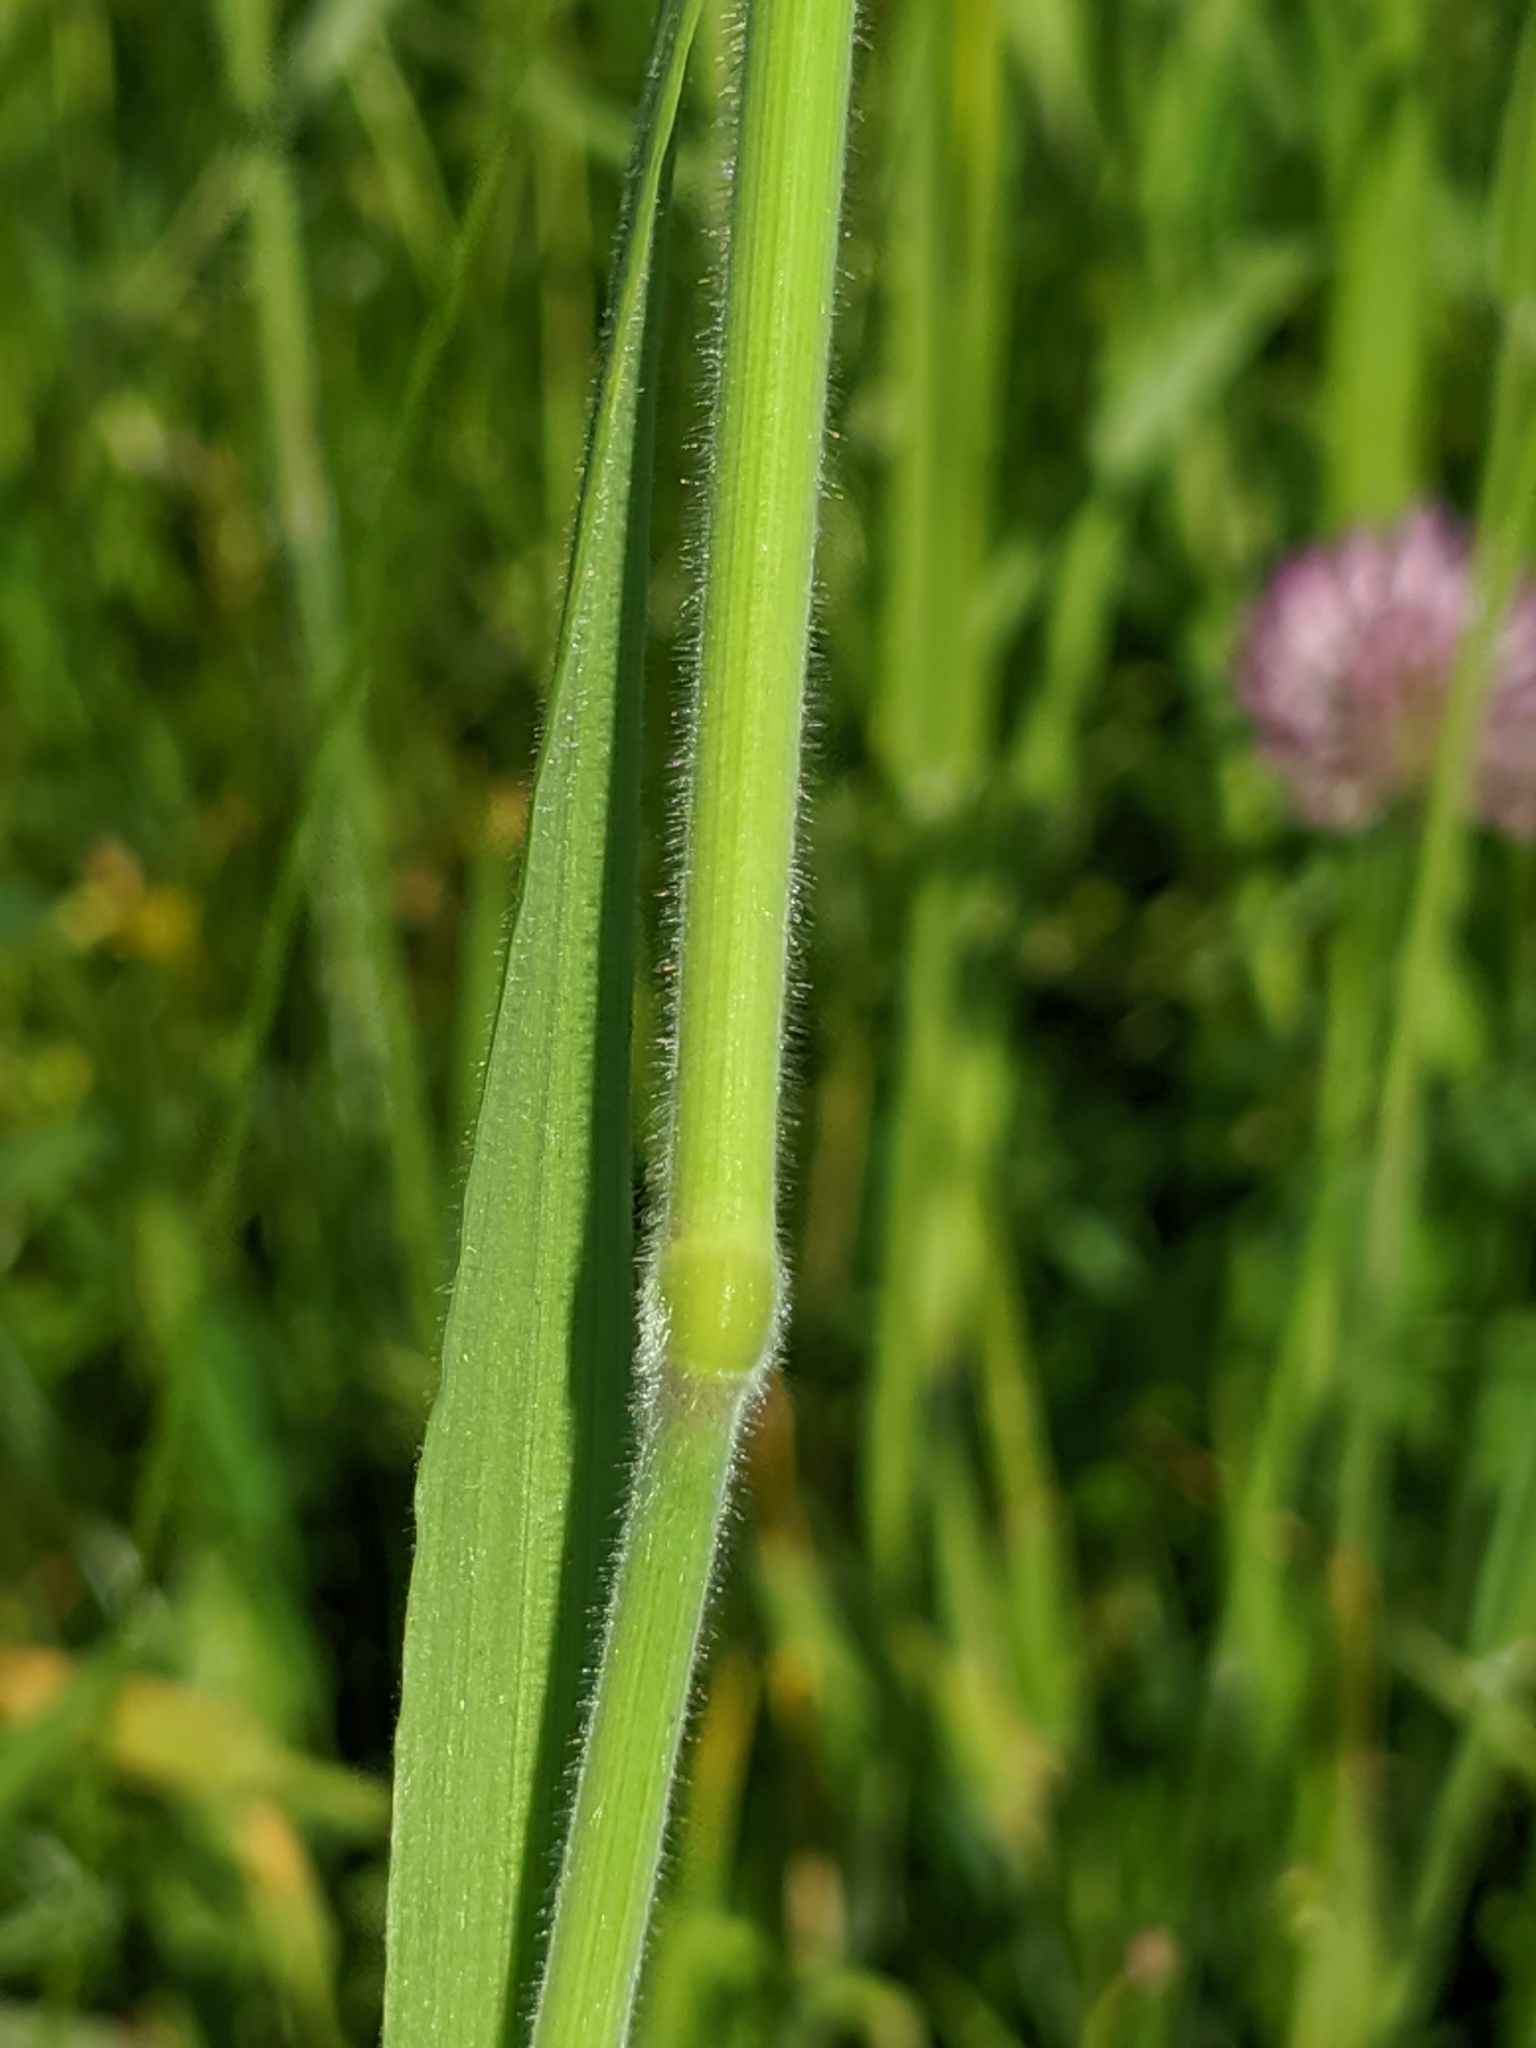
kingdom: Plantae
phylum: Tracheophyta
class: Liliopsida
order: Poales
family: Poaceae
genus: Holcus
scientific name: Holcus lanatus
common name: Yorkshire-fog
